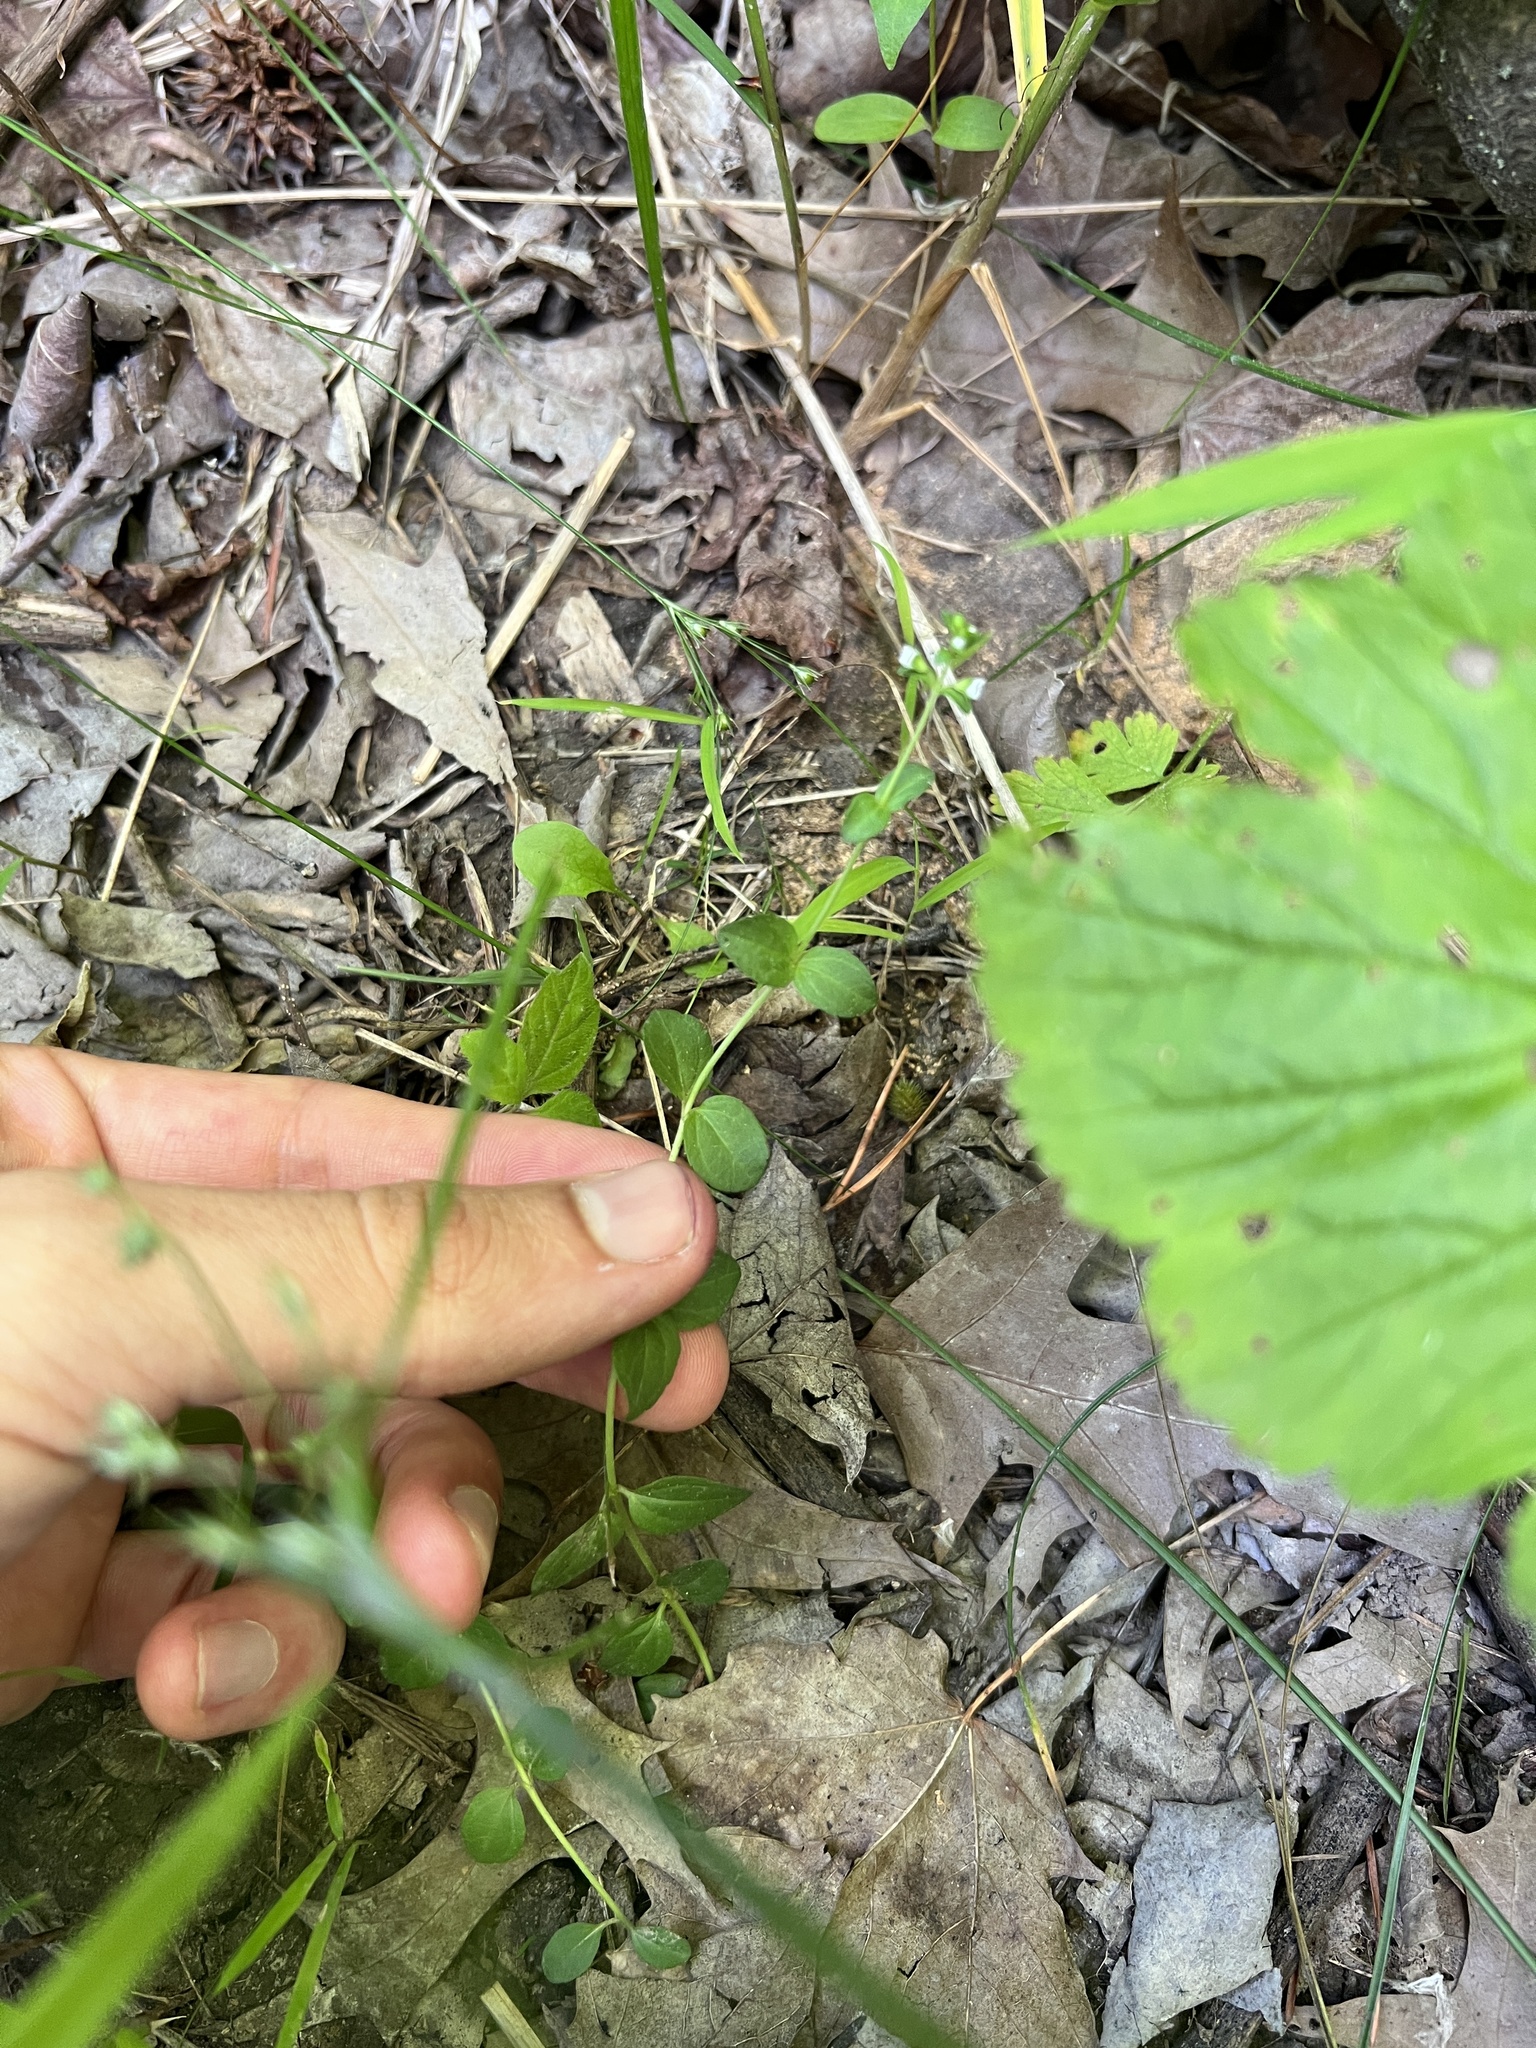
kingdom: Plantae
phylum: Tracheophyta
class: Magnoliopsida
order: Lamiales
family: Plantaginaceae
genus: Veronica
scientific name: Veronica serpyllifolia
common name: Thyme-leaved speedwell
